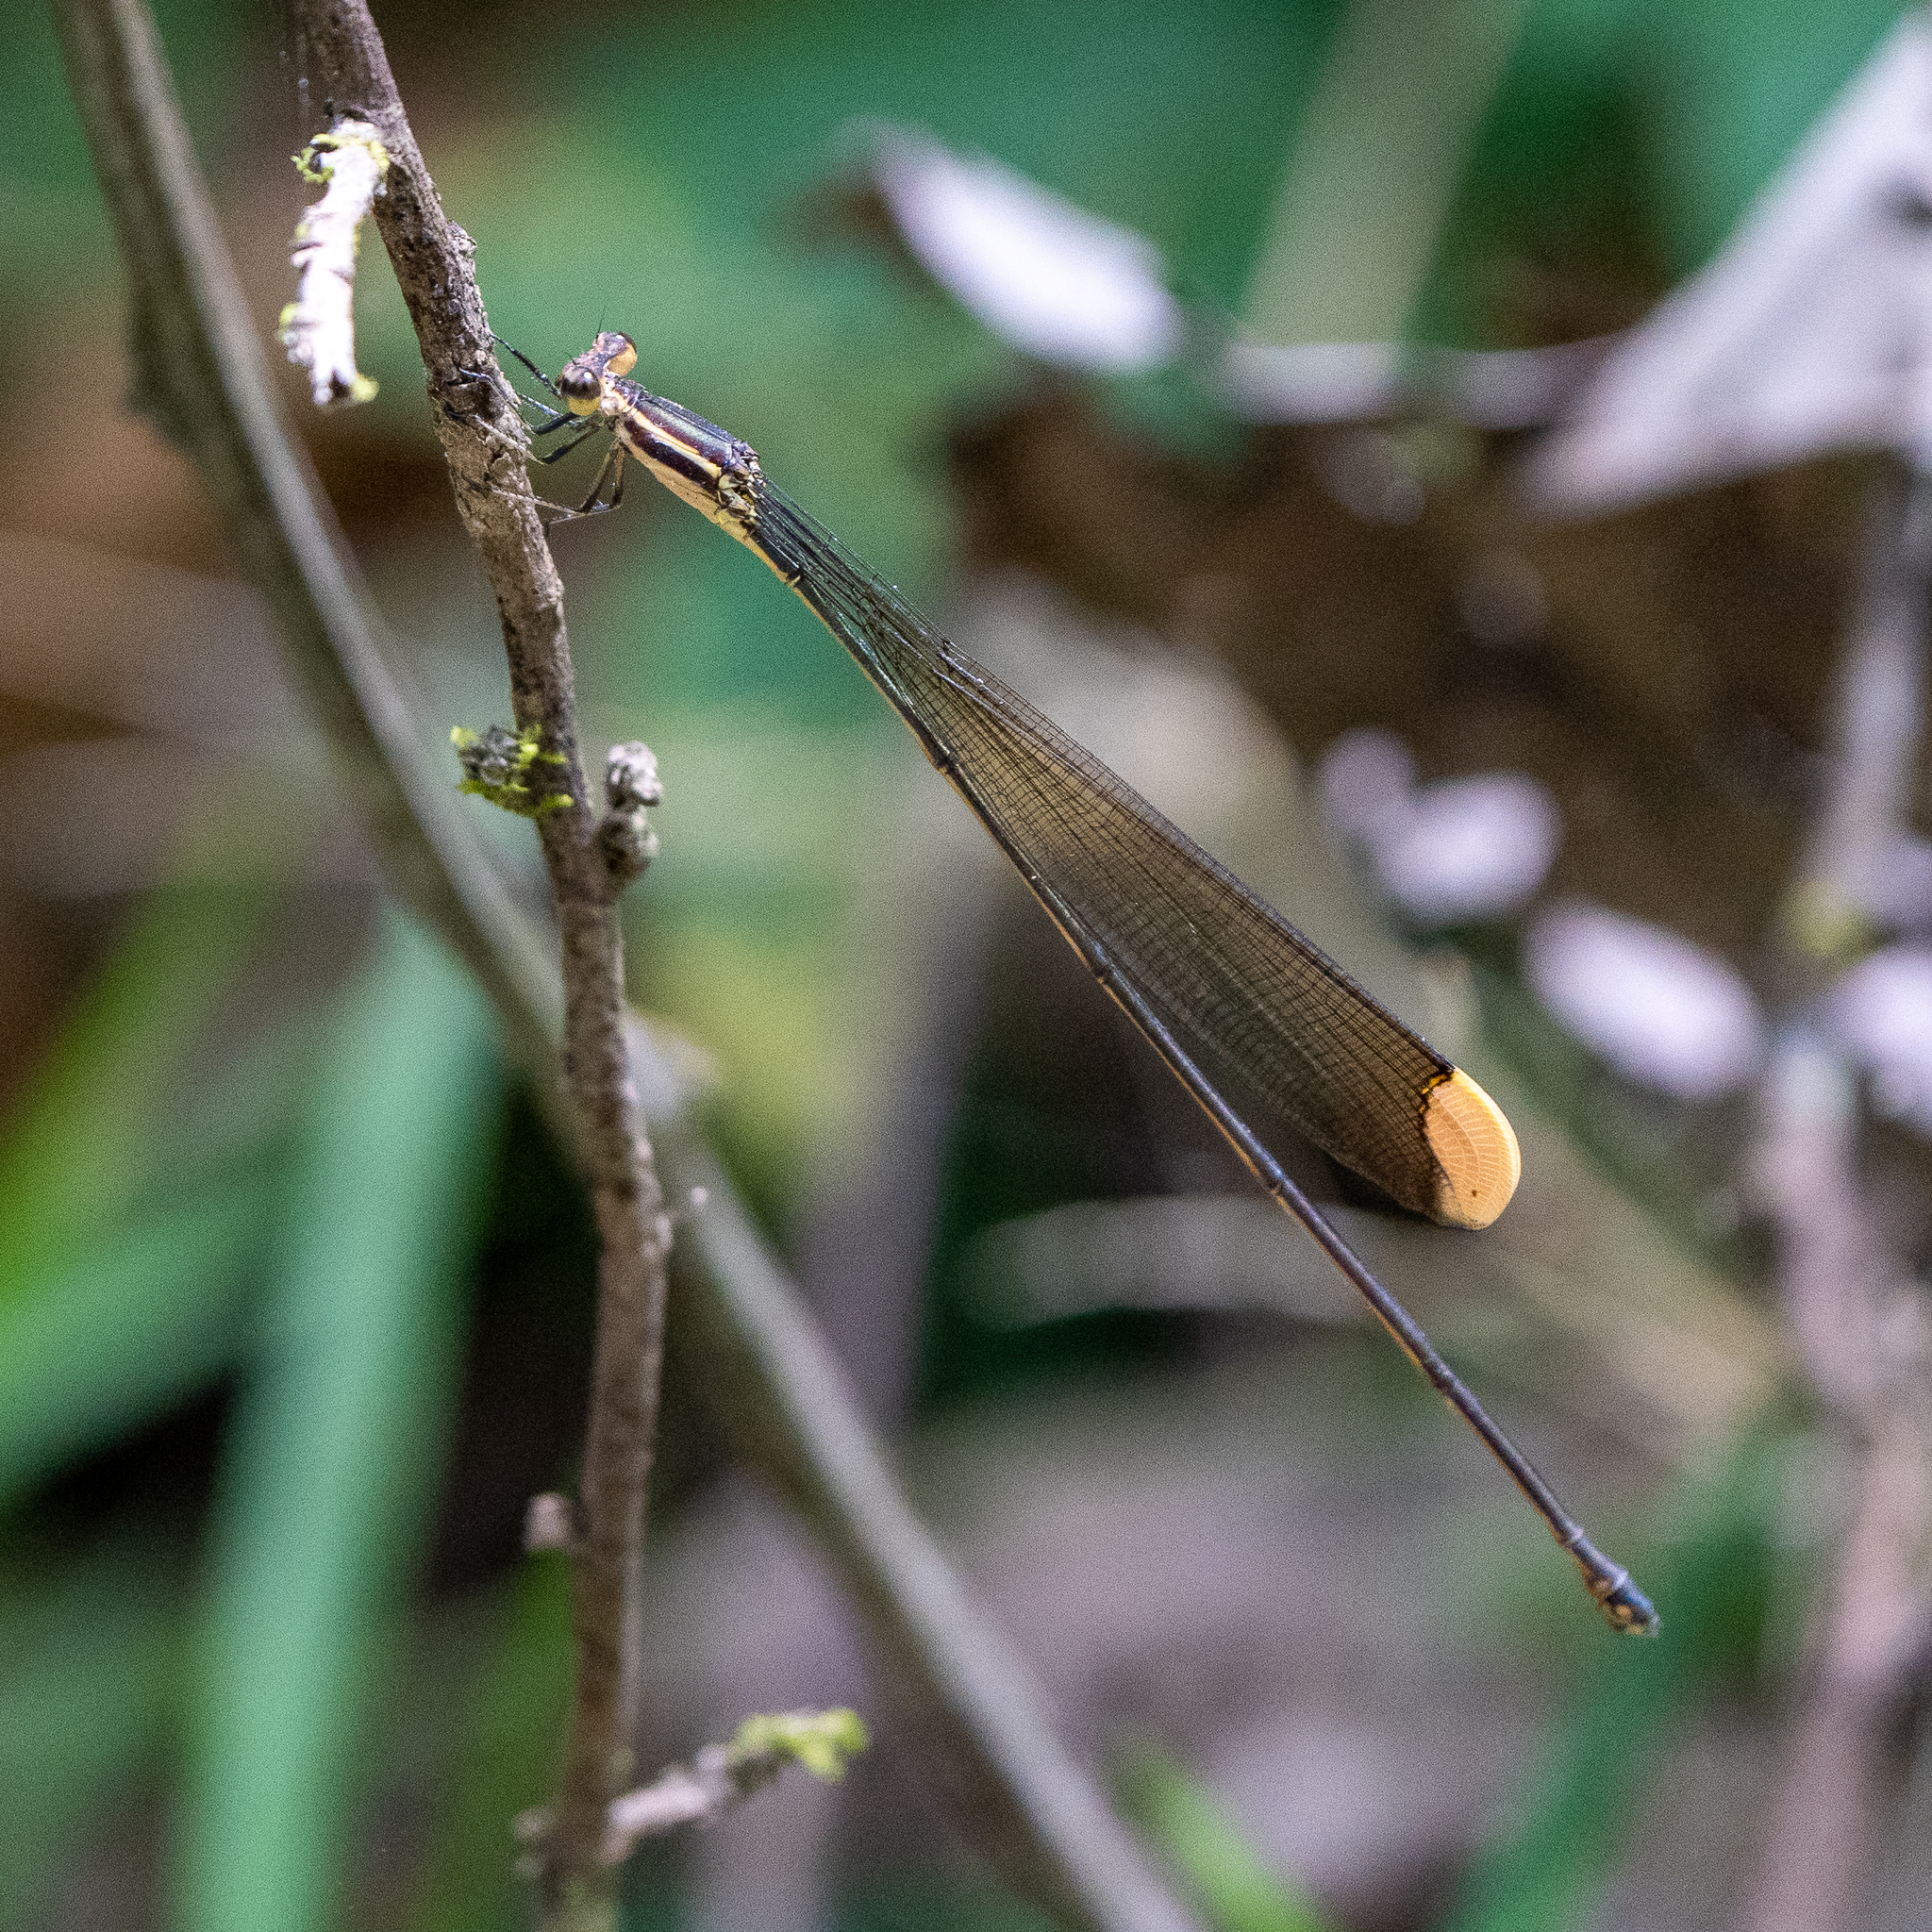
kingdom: Animalia
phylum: Arthropoda
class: Insecta
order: Odonata
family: Coenagrionidae
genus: Mecistogaster
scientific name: Mecistogaster ornata
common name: Ornate helicopter
